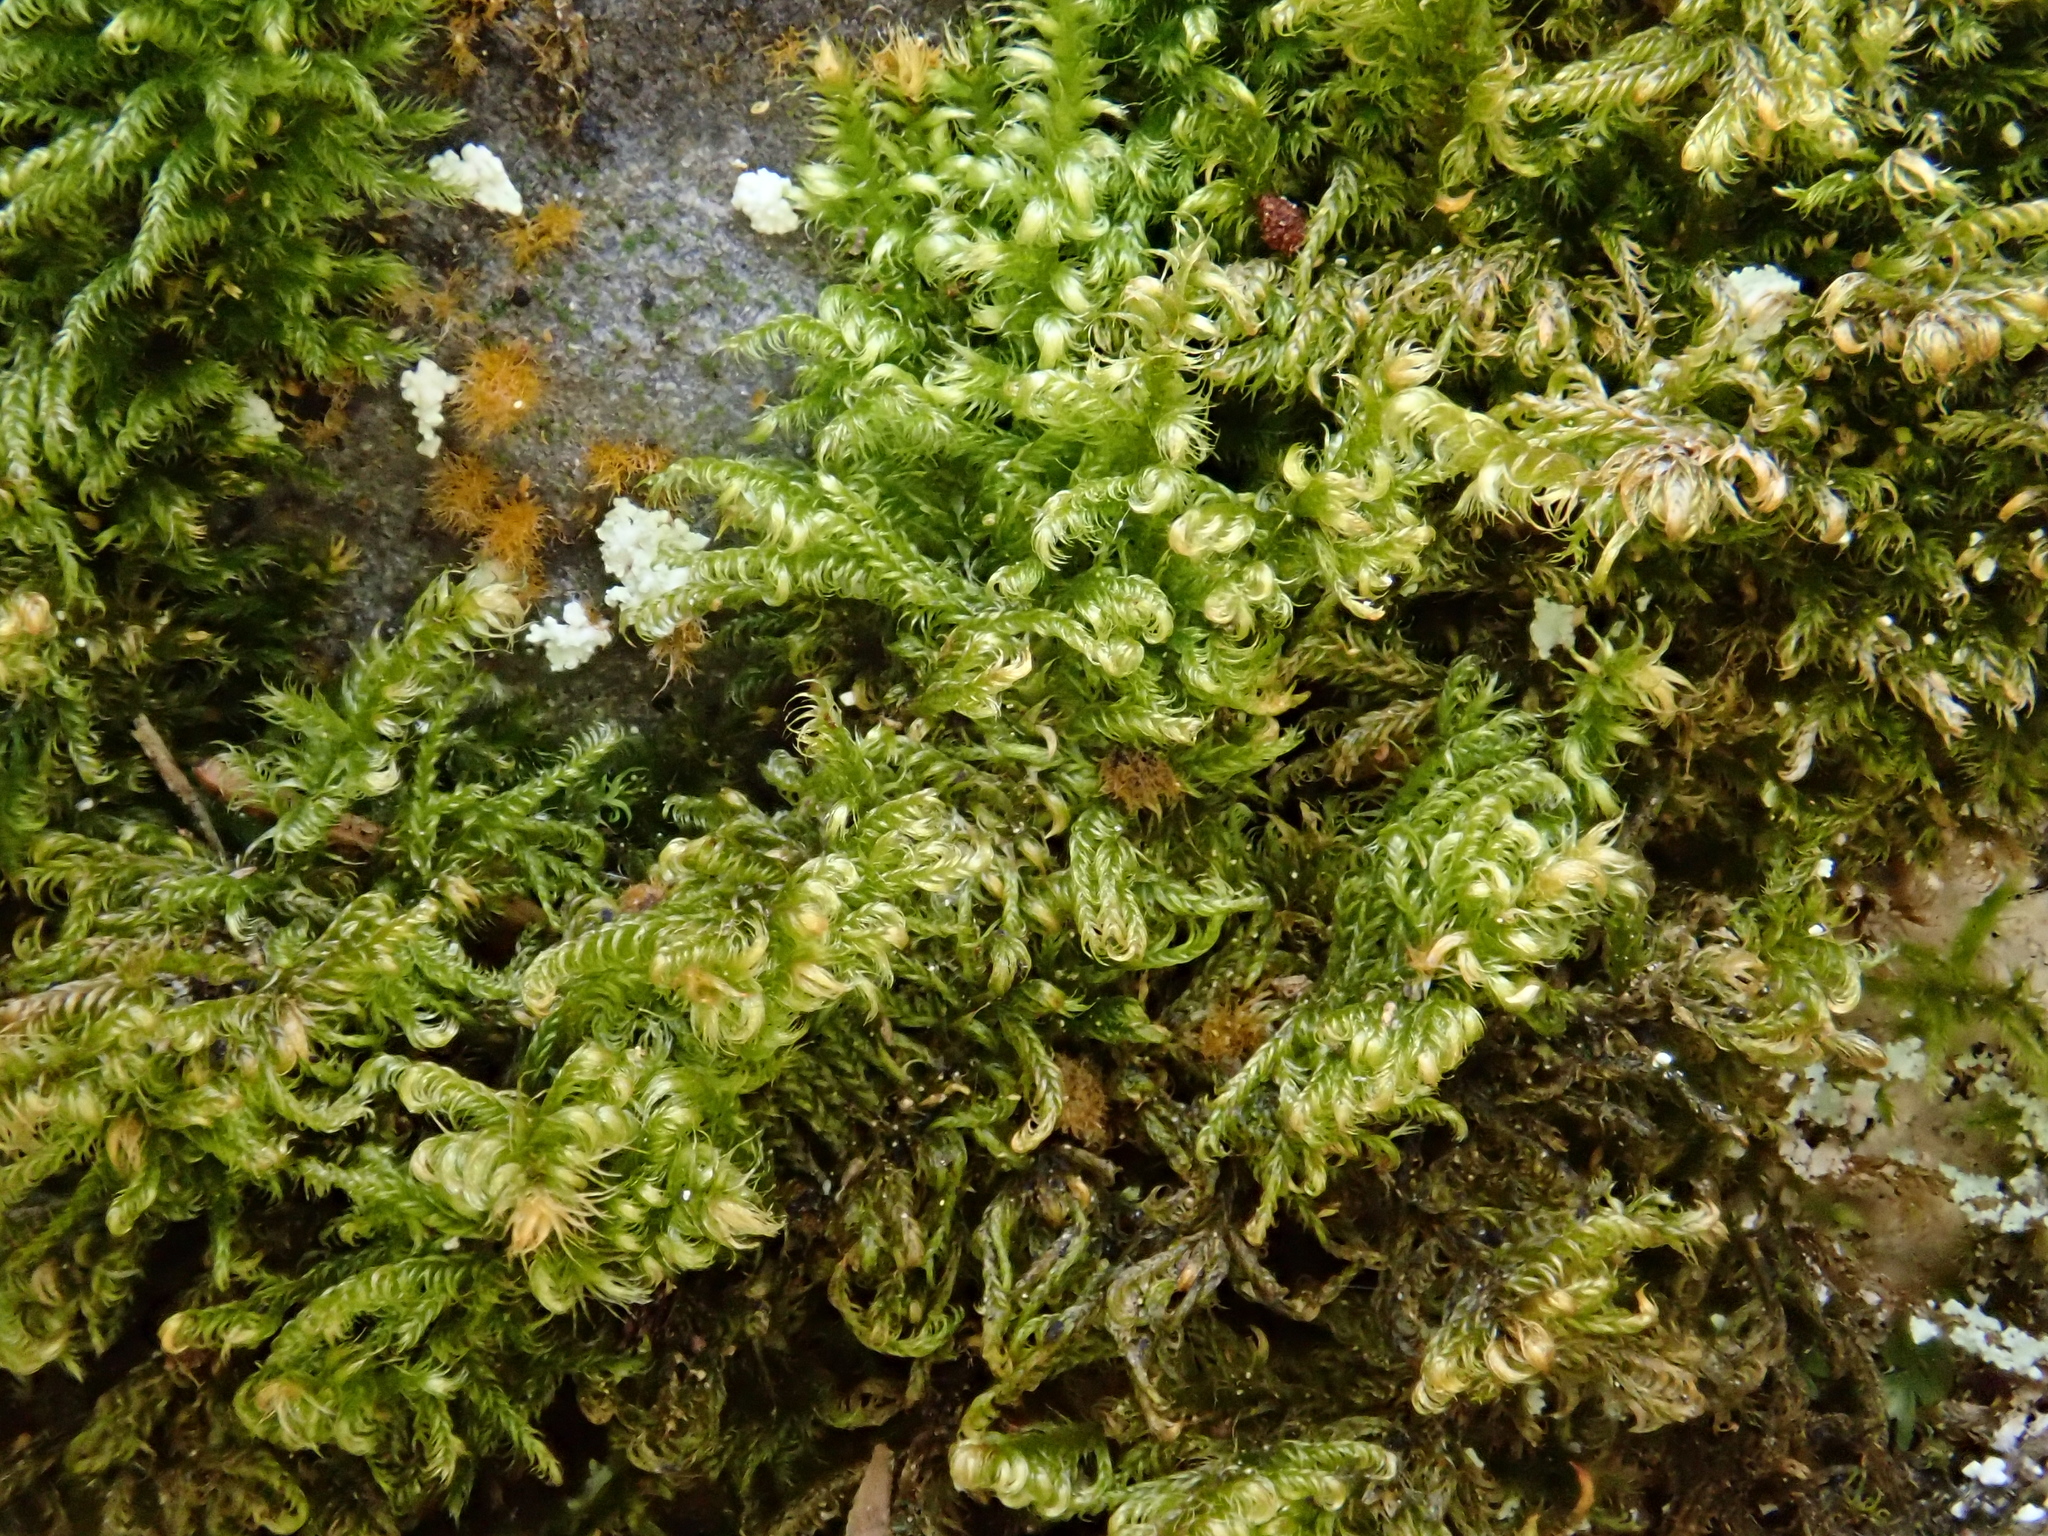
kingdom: Plantae
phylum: Bryophyta
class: Bryopsida
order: Hypnales
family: Myuriaceae
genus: Ctenidium
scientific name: Ctenidium molluscum
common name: Chalk comb-moss
